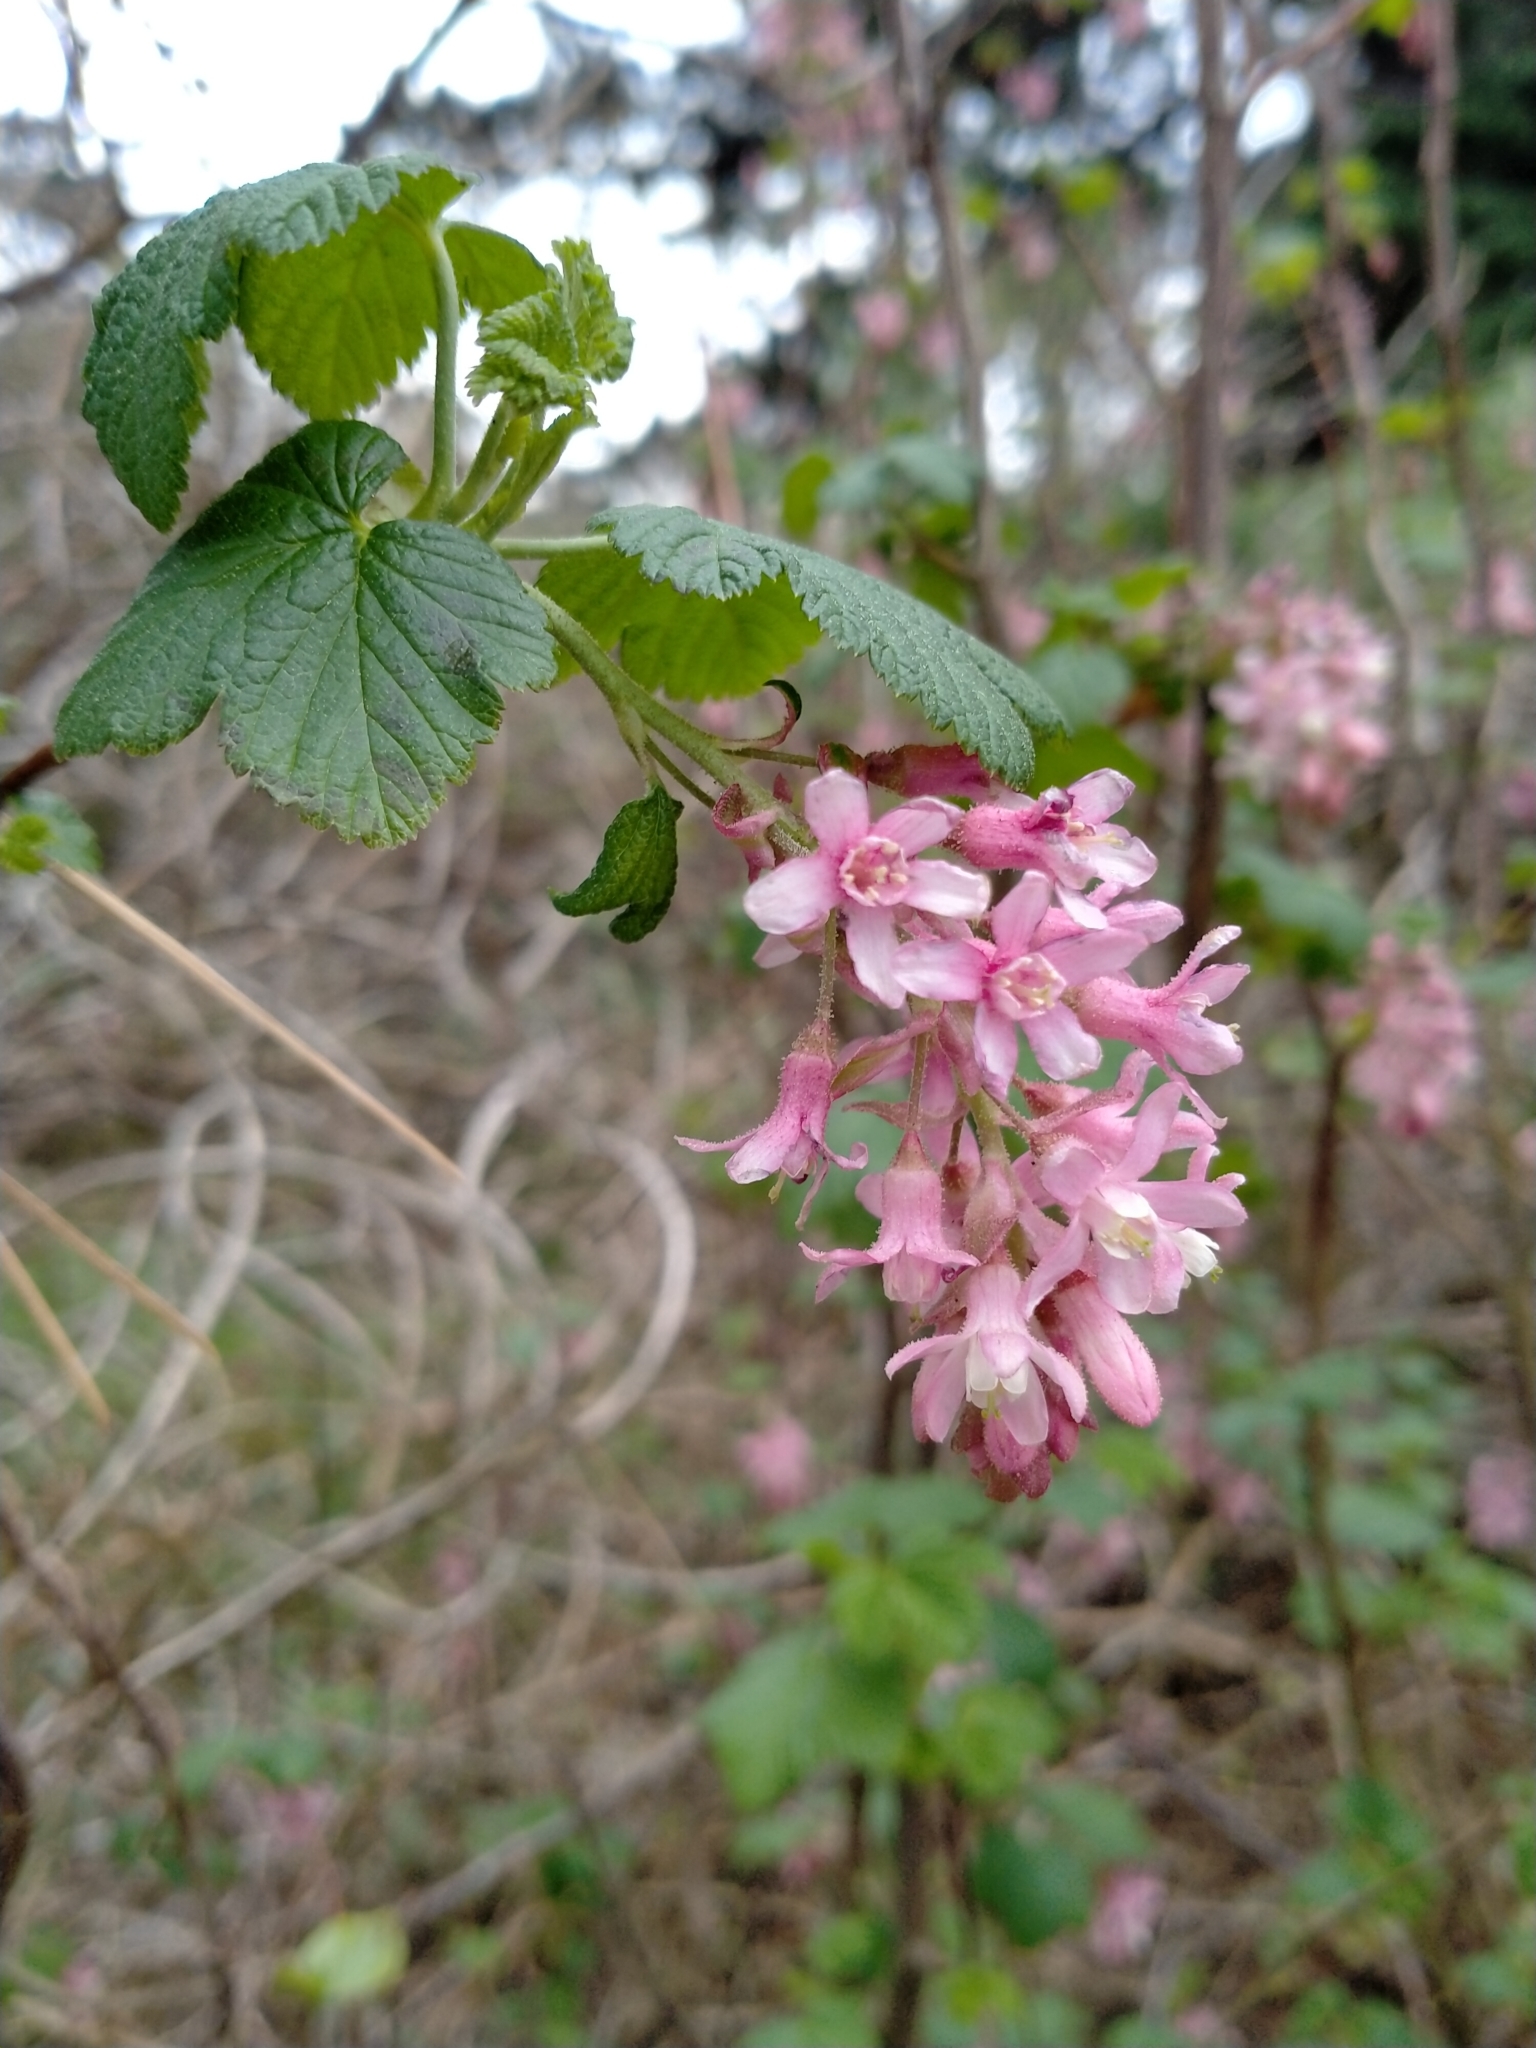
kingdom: Plantae
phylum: Tracheophyta
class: Magnoliopsida
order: Saxifragales
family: Grossulariaceae
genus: Ribes
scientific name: Ribes sanguineum
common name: Flowering currant
